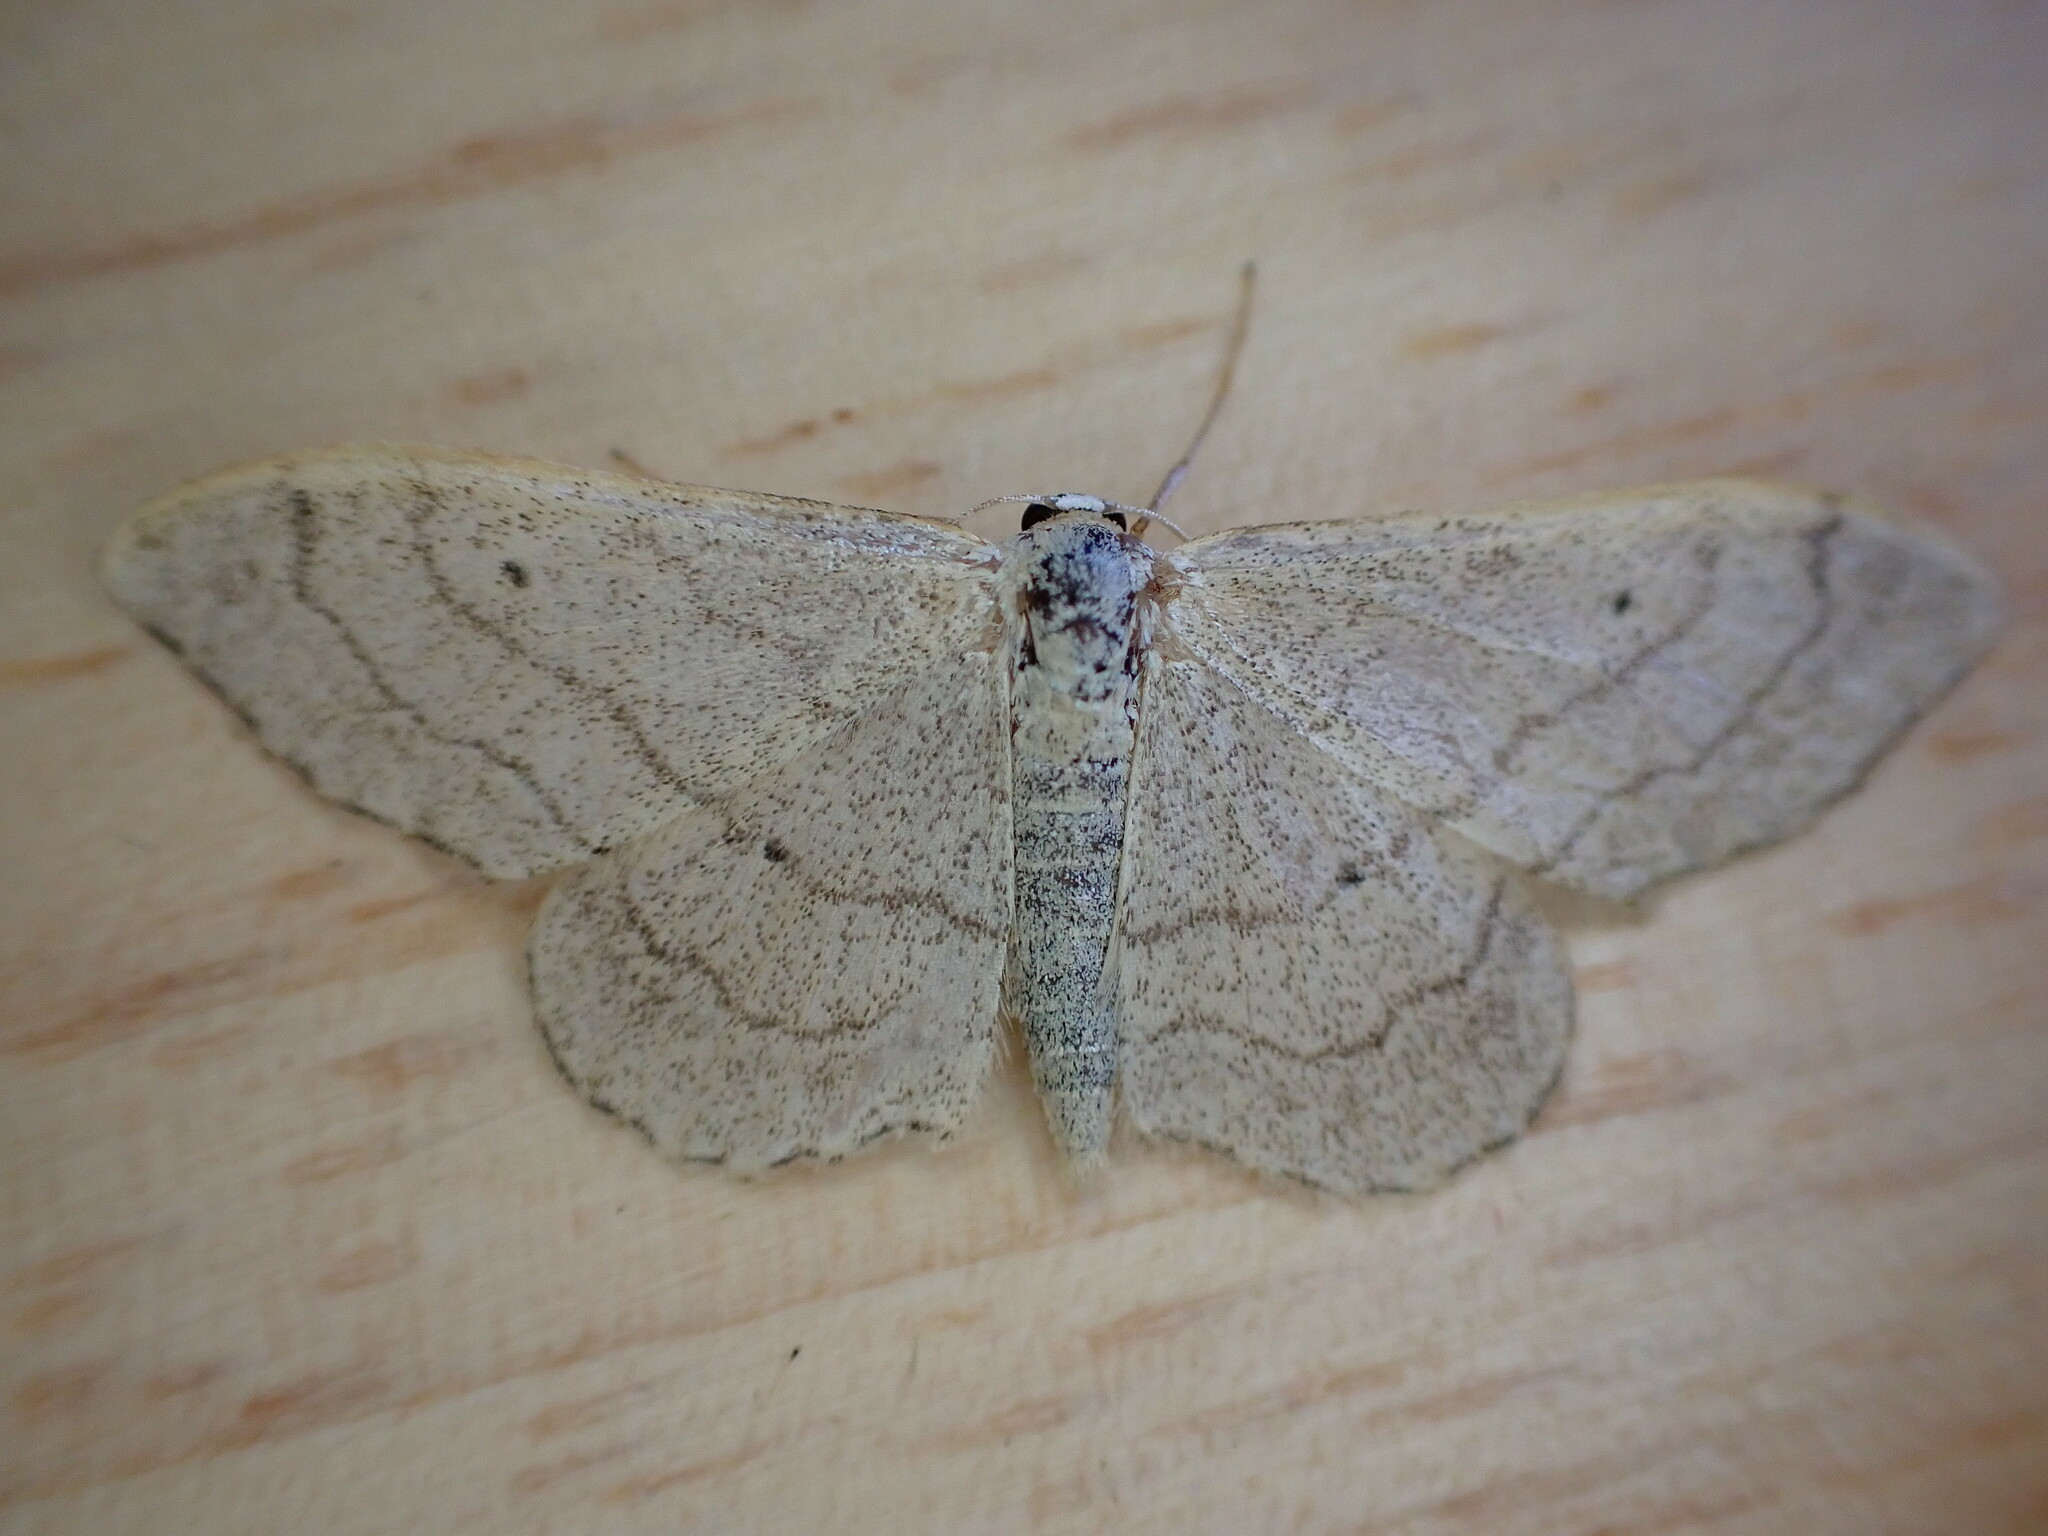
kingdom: Animalia
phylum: Arthropoda
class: Insecta
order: Lepidoptera
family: Geometridae
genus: Idaea
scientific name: Idaea aversata
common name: Riband wave
